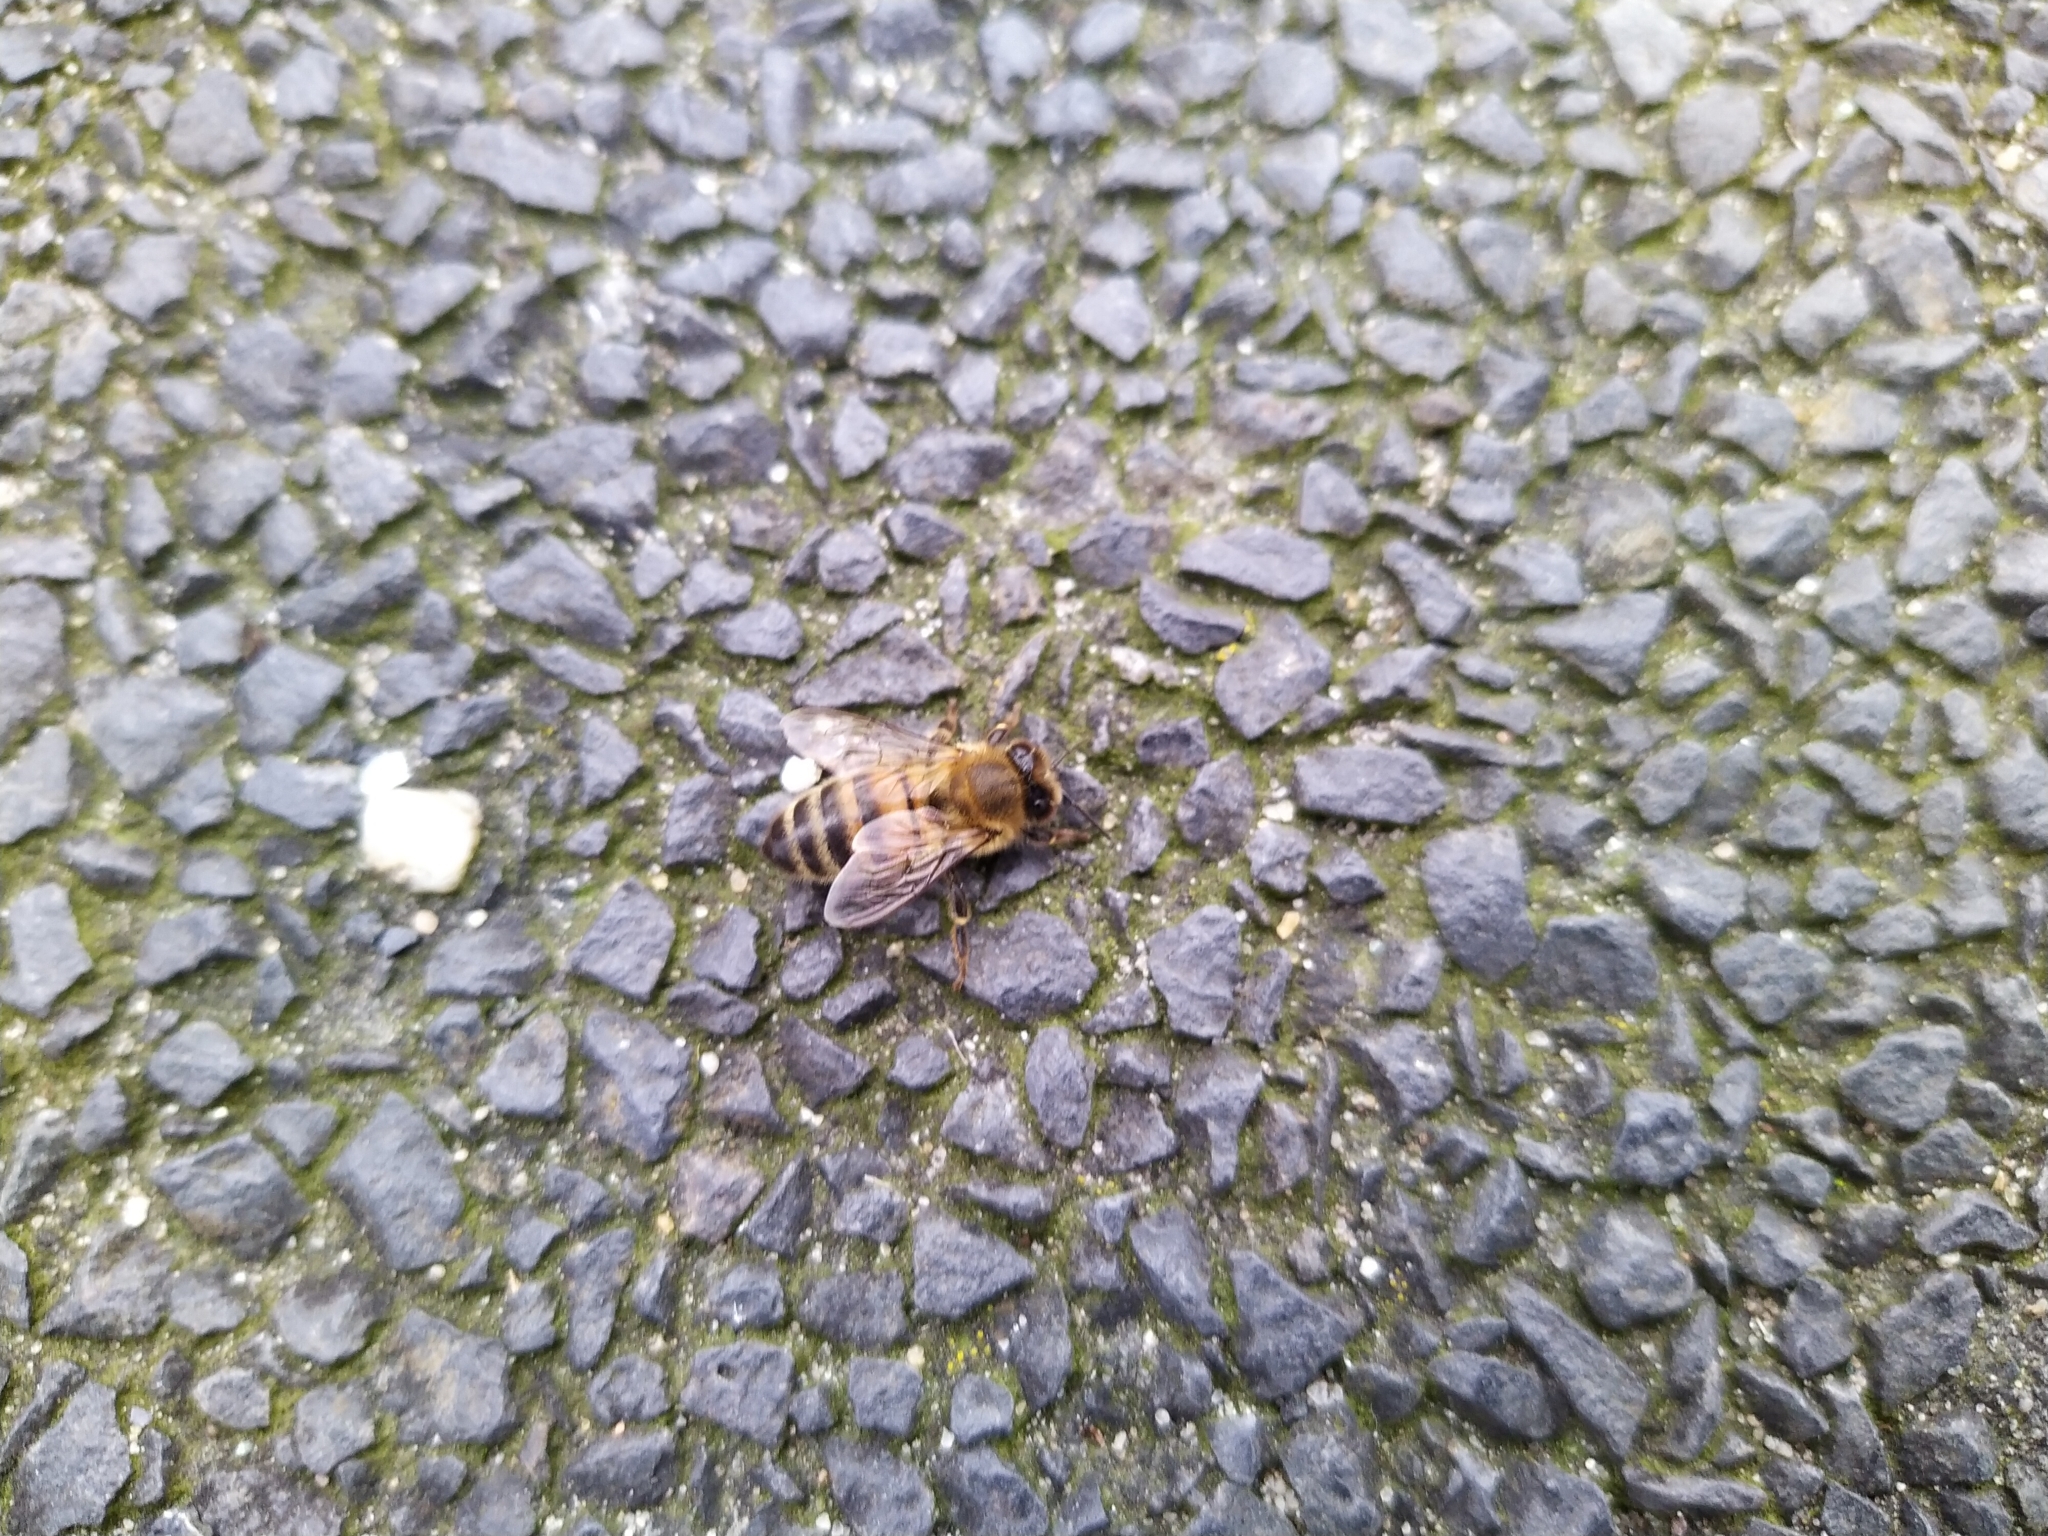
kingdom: Animalia
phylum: Arthropoda
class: Insecta
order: Hymenoptera
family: Apidae
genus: Apis
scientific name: Apis mellifera
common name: Honey bee
